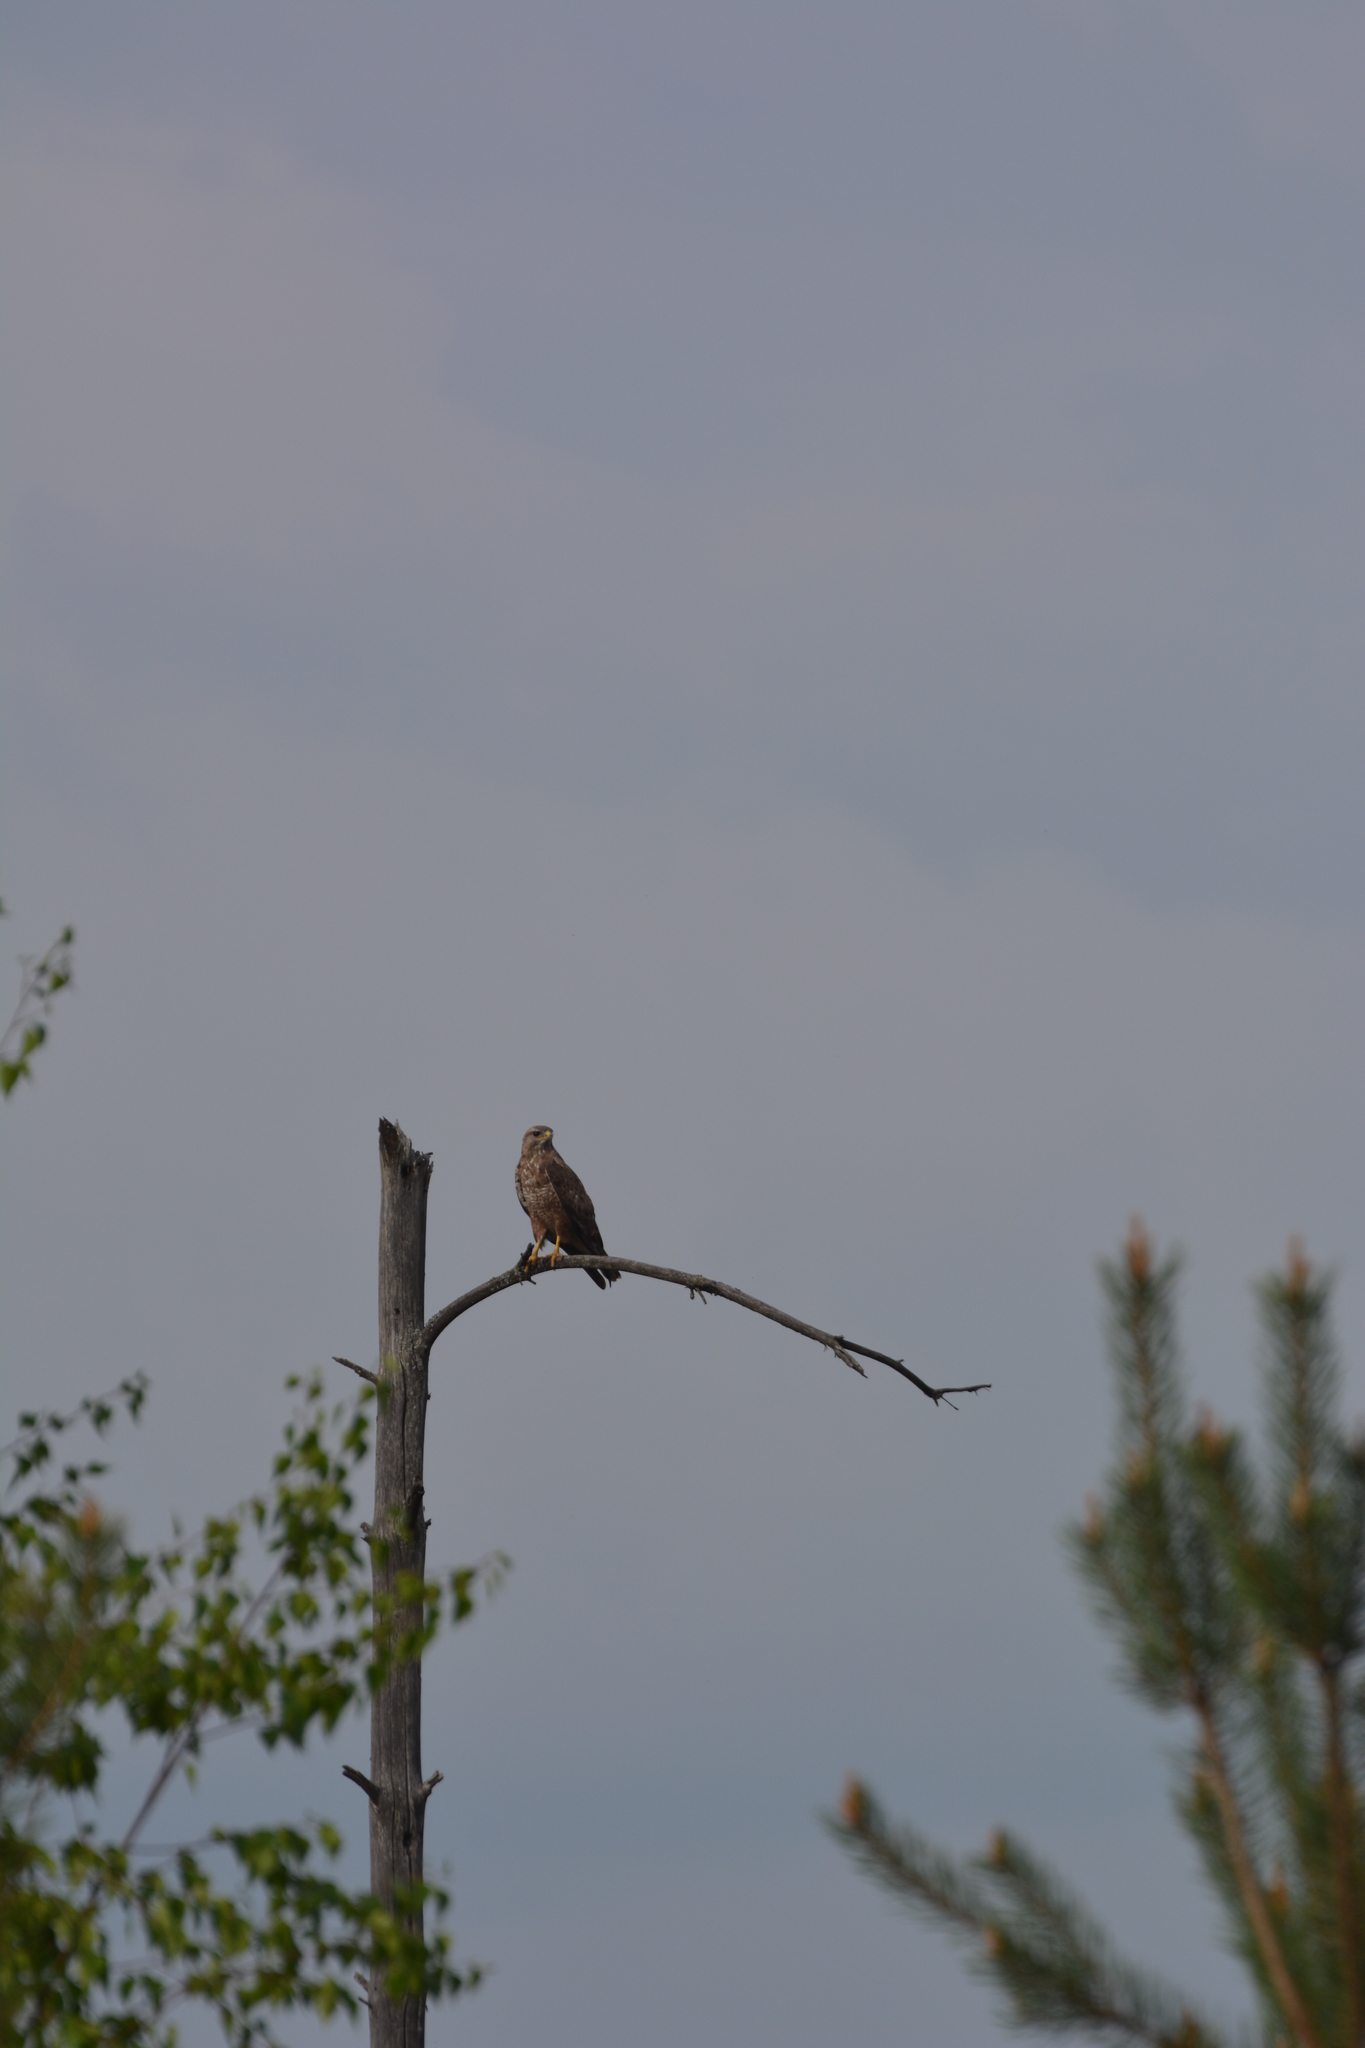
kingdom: Animalia
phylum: Chordata
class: Aves
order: Accipitriformes
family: Accipitridae
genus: Buteo
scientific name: Buteo buteo
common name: Common buzzard
